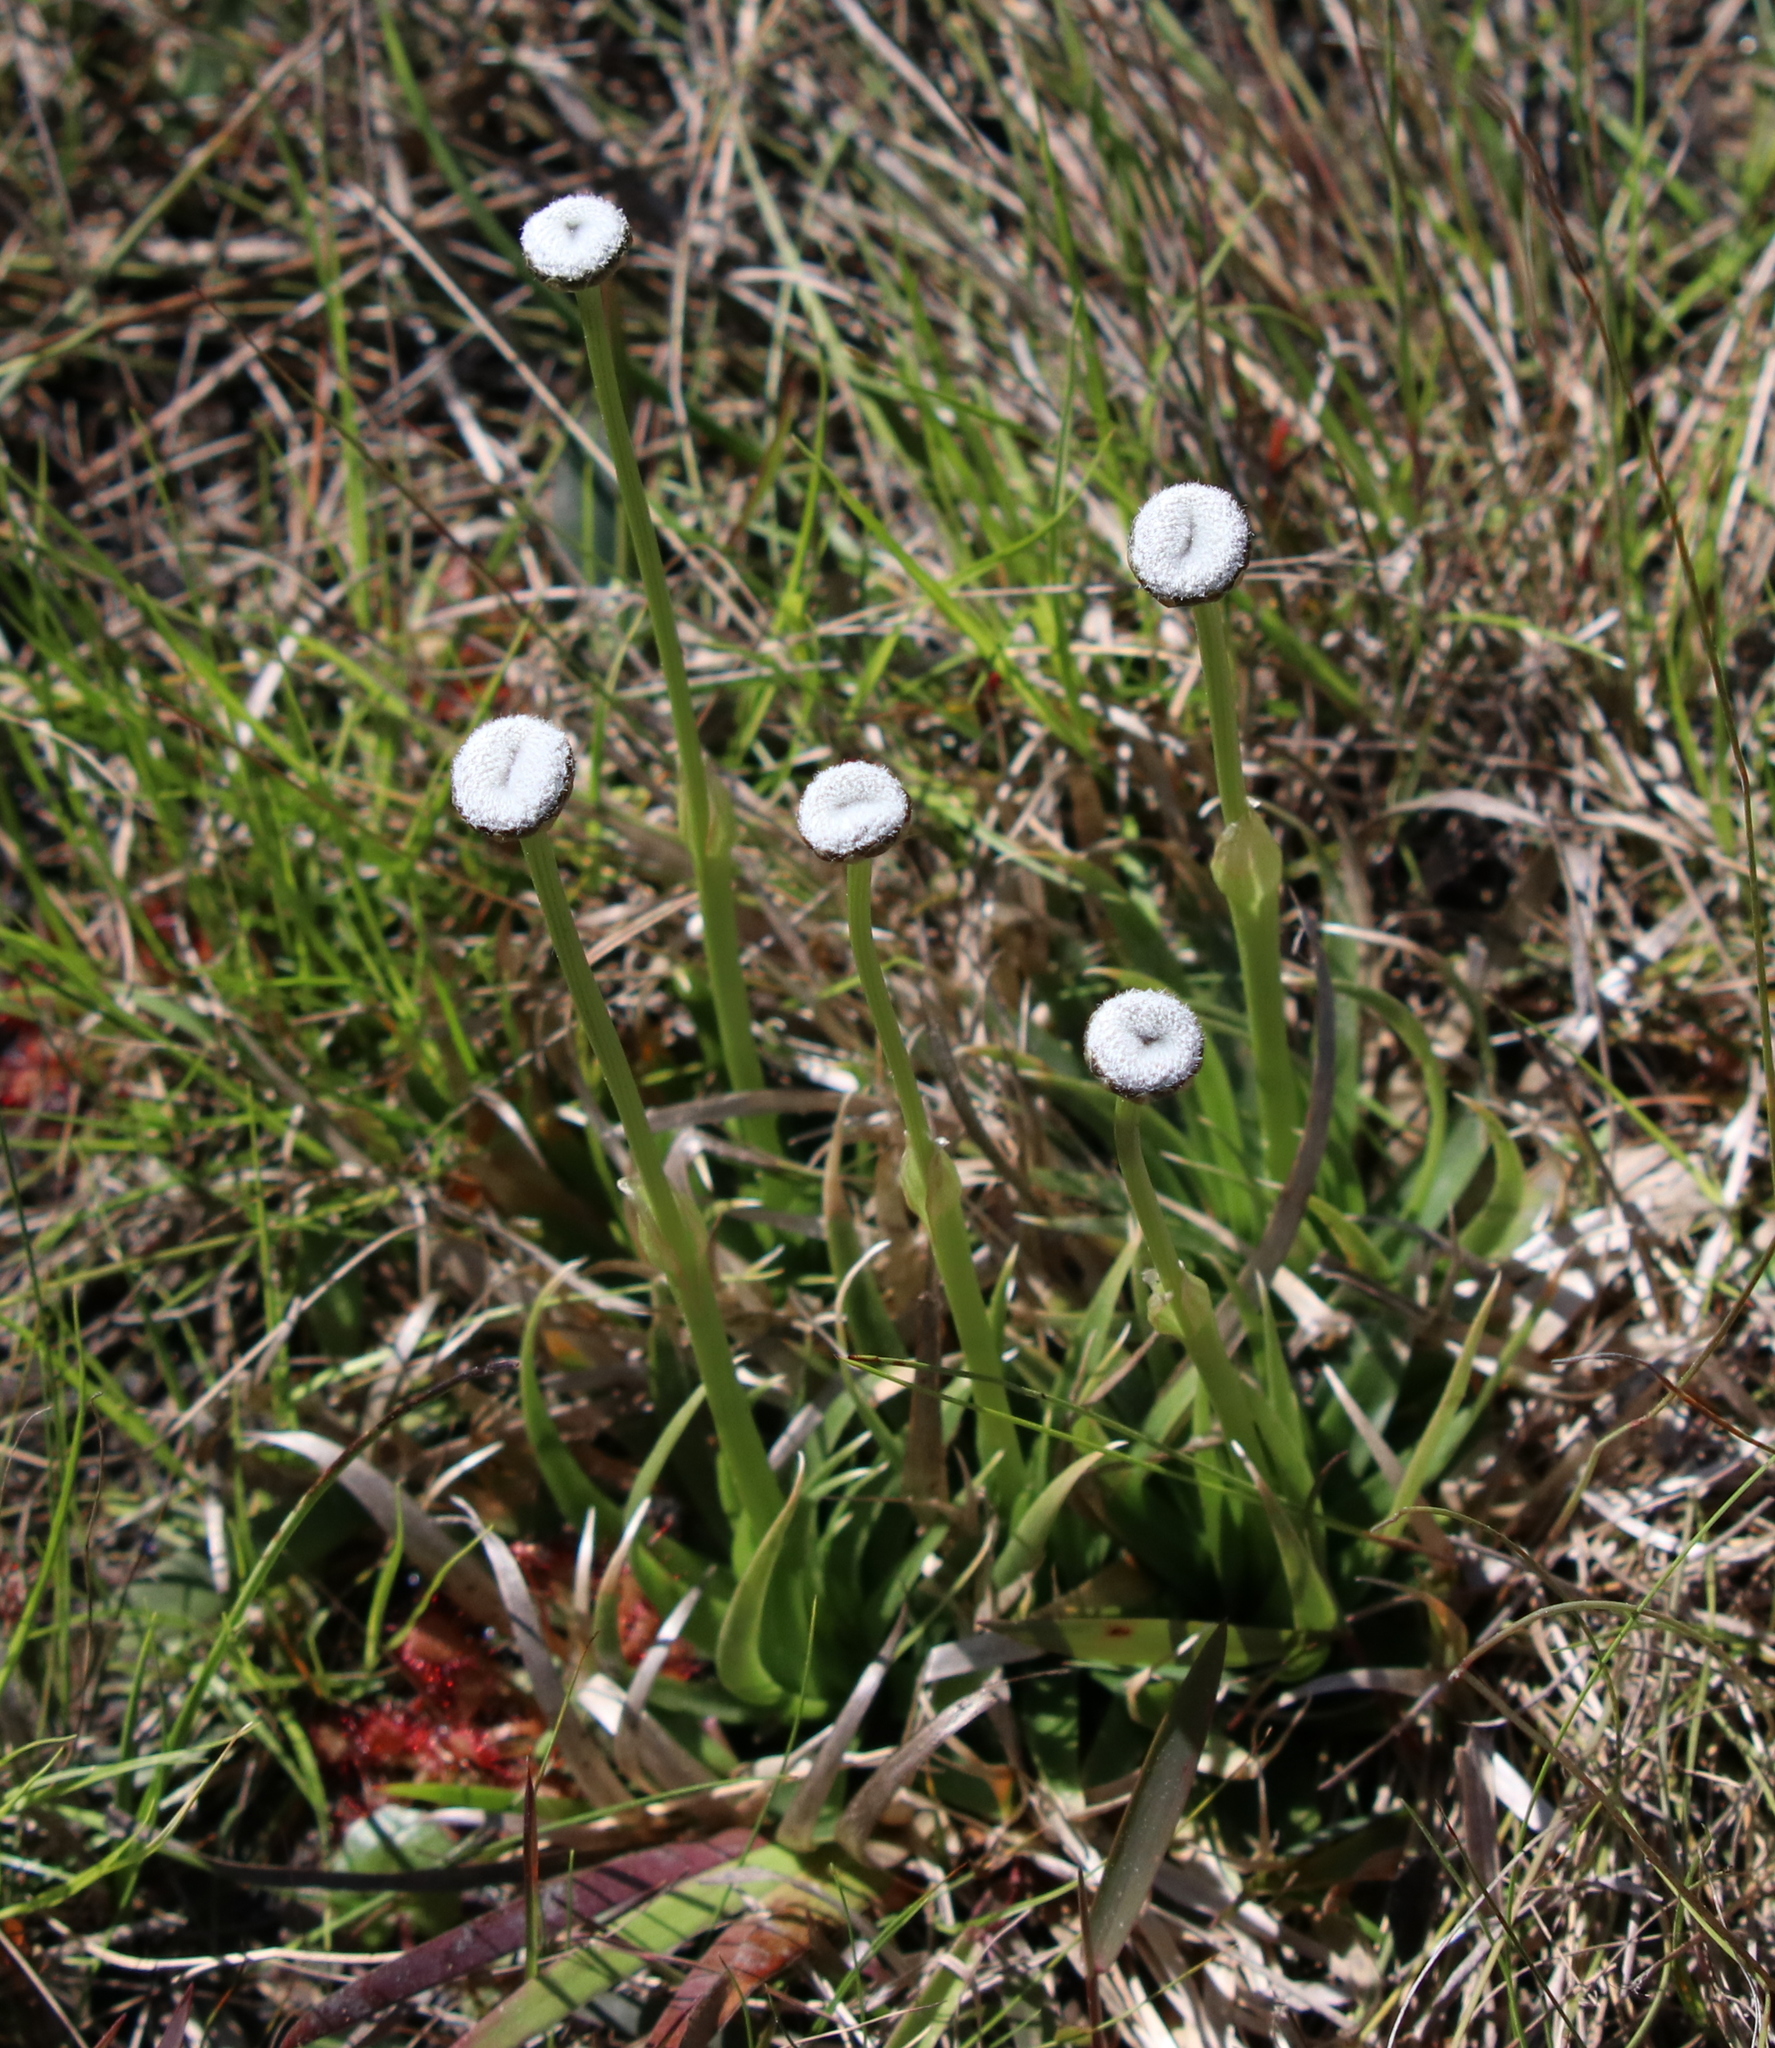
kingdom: Plantae
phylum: Tracheophyta
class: Liliopsida
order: Poales
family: Eriocaulaceae
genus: Eriocaulon
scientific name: Eriocaulon compressum
